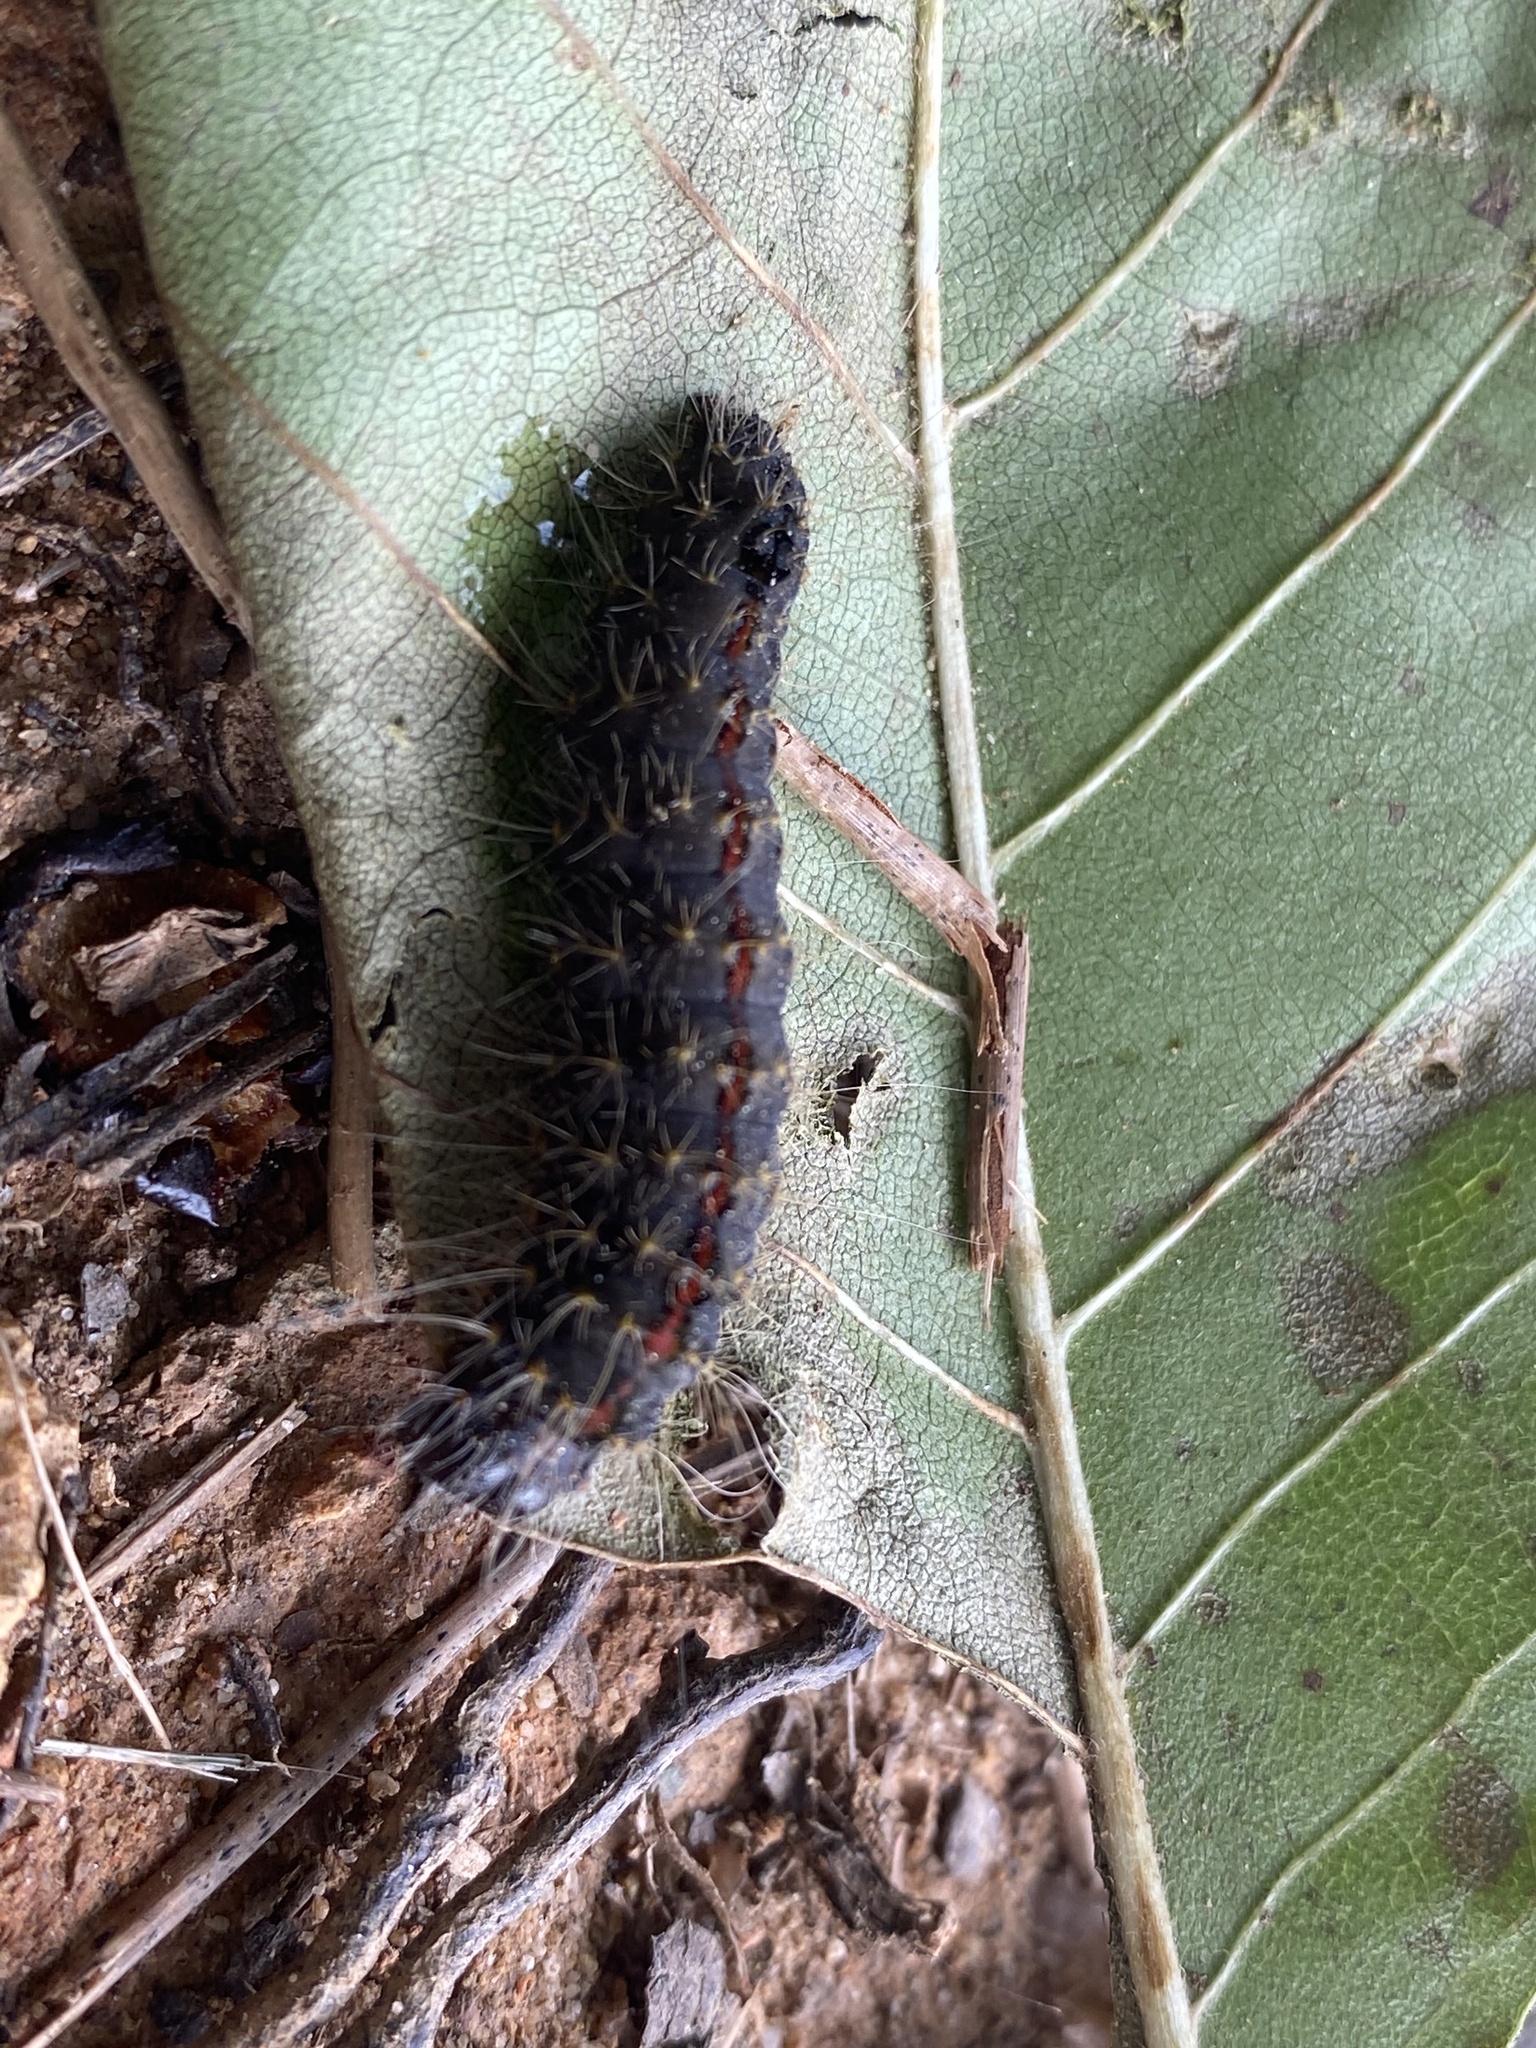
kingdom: Animalia
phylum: Arthropoda
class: Insecta
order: Lepidoptera
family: Noctuidae
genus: Acronicta
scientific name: Acronicta hasta
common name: Cherry dagger
